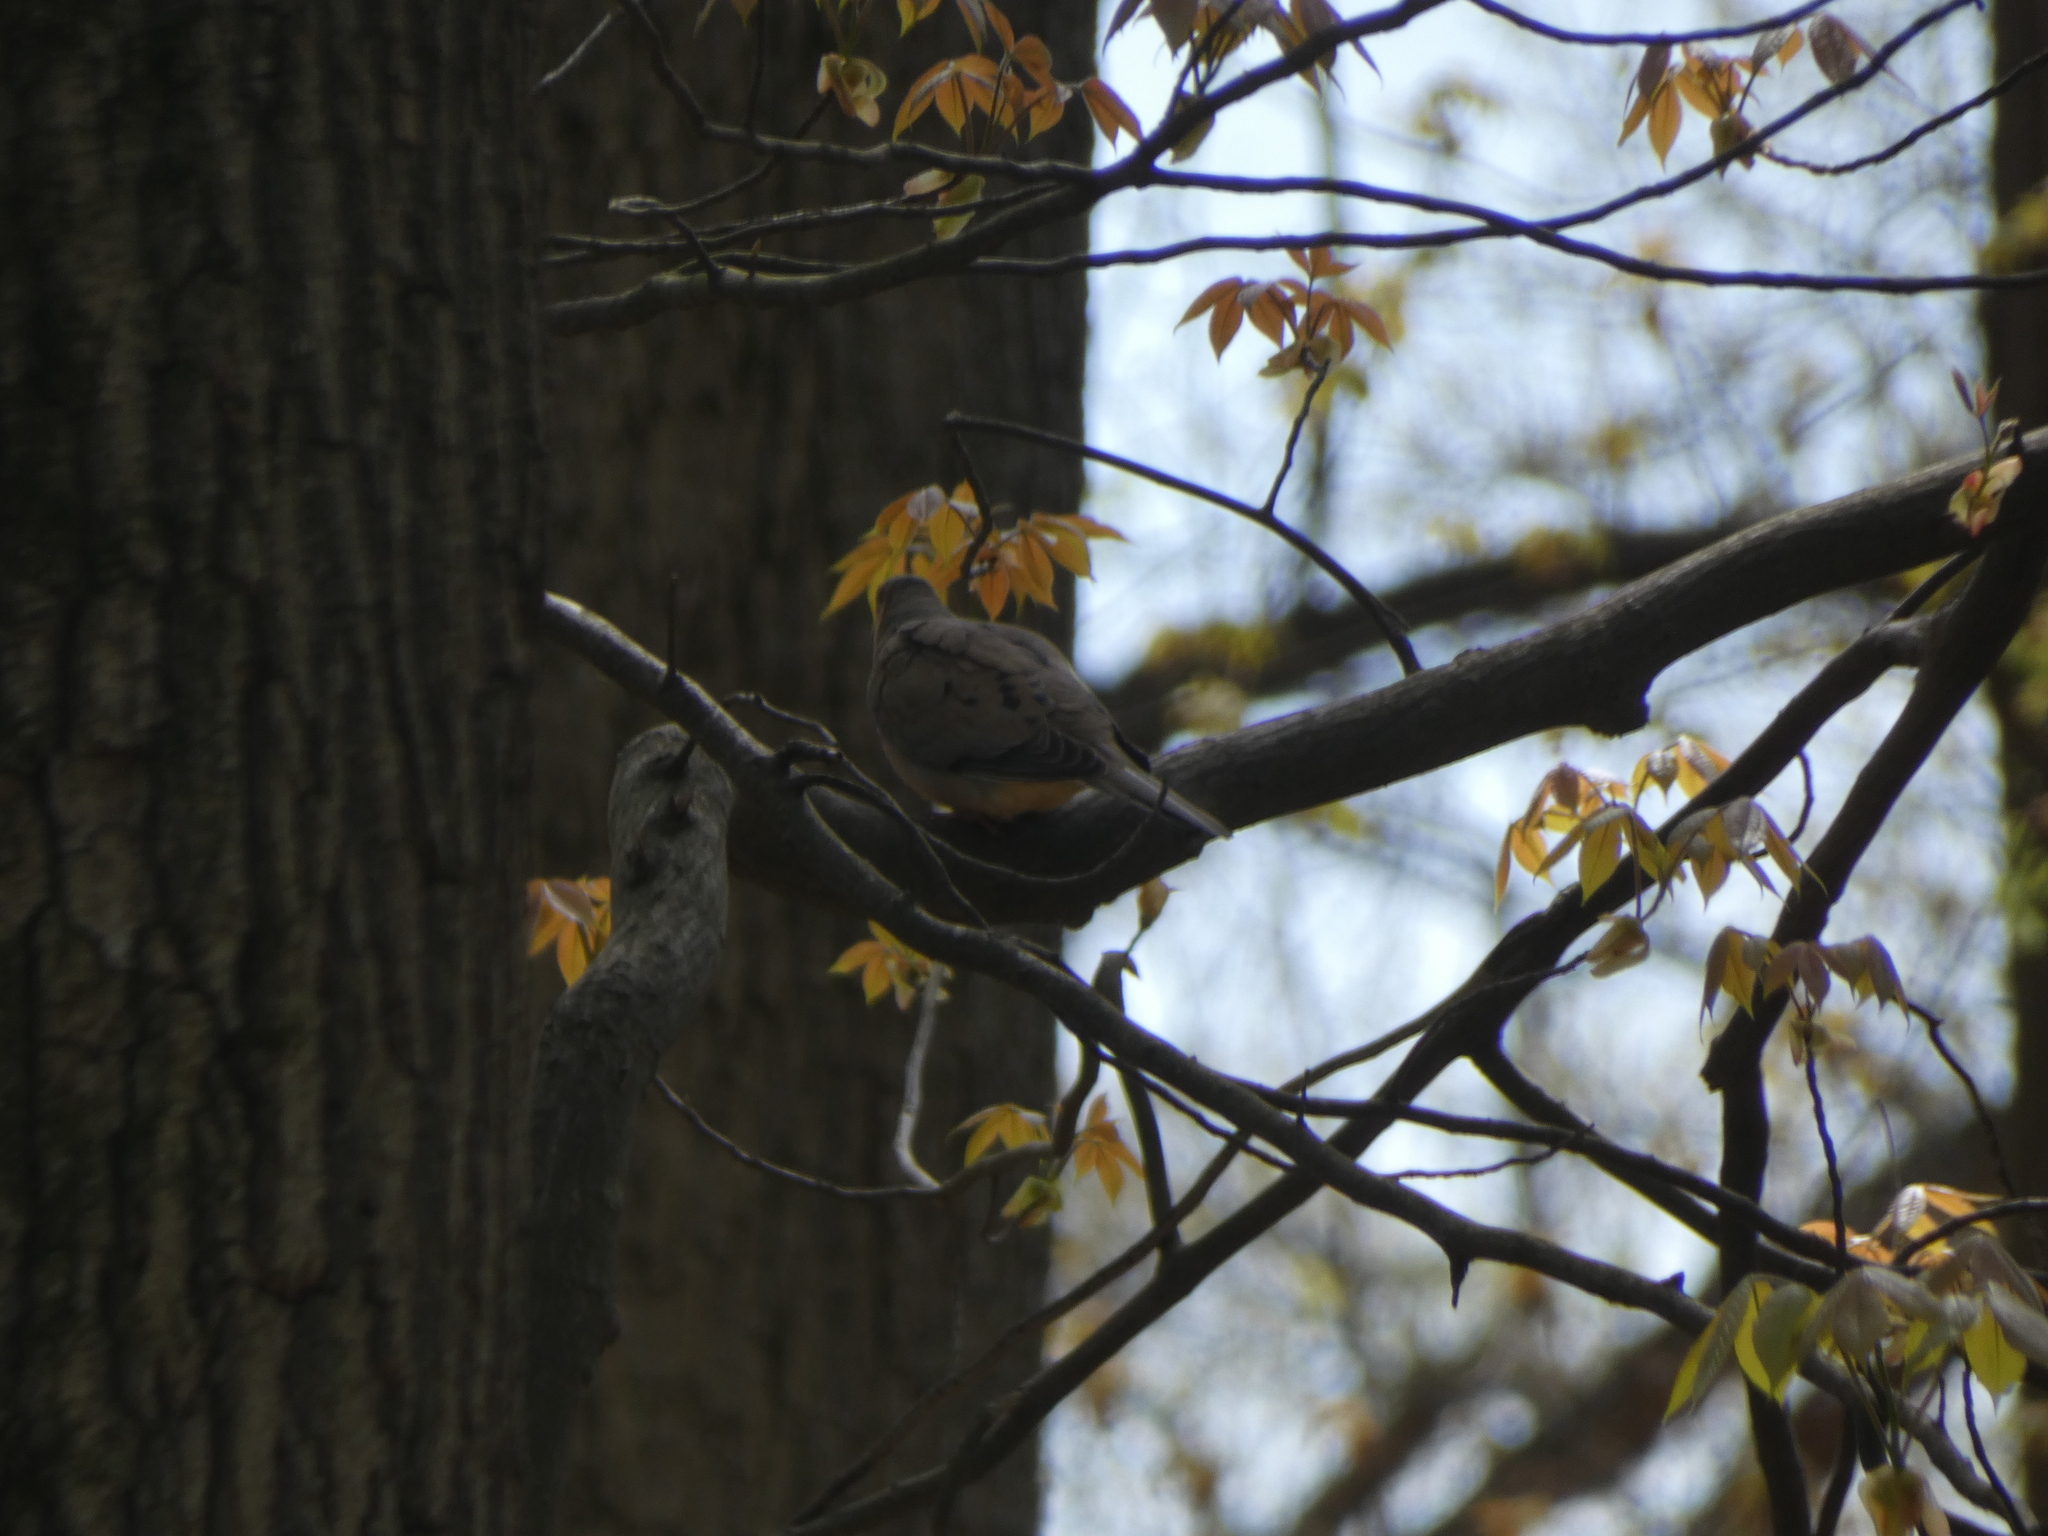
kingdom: Animalia
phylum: Chordata
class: Aves
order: Columbiformes
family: Columbidae
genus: Zenaida
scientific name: Zenaida macroura
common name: Mourning dove
